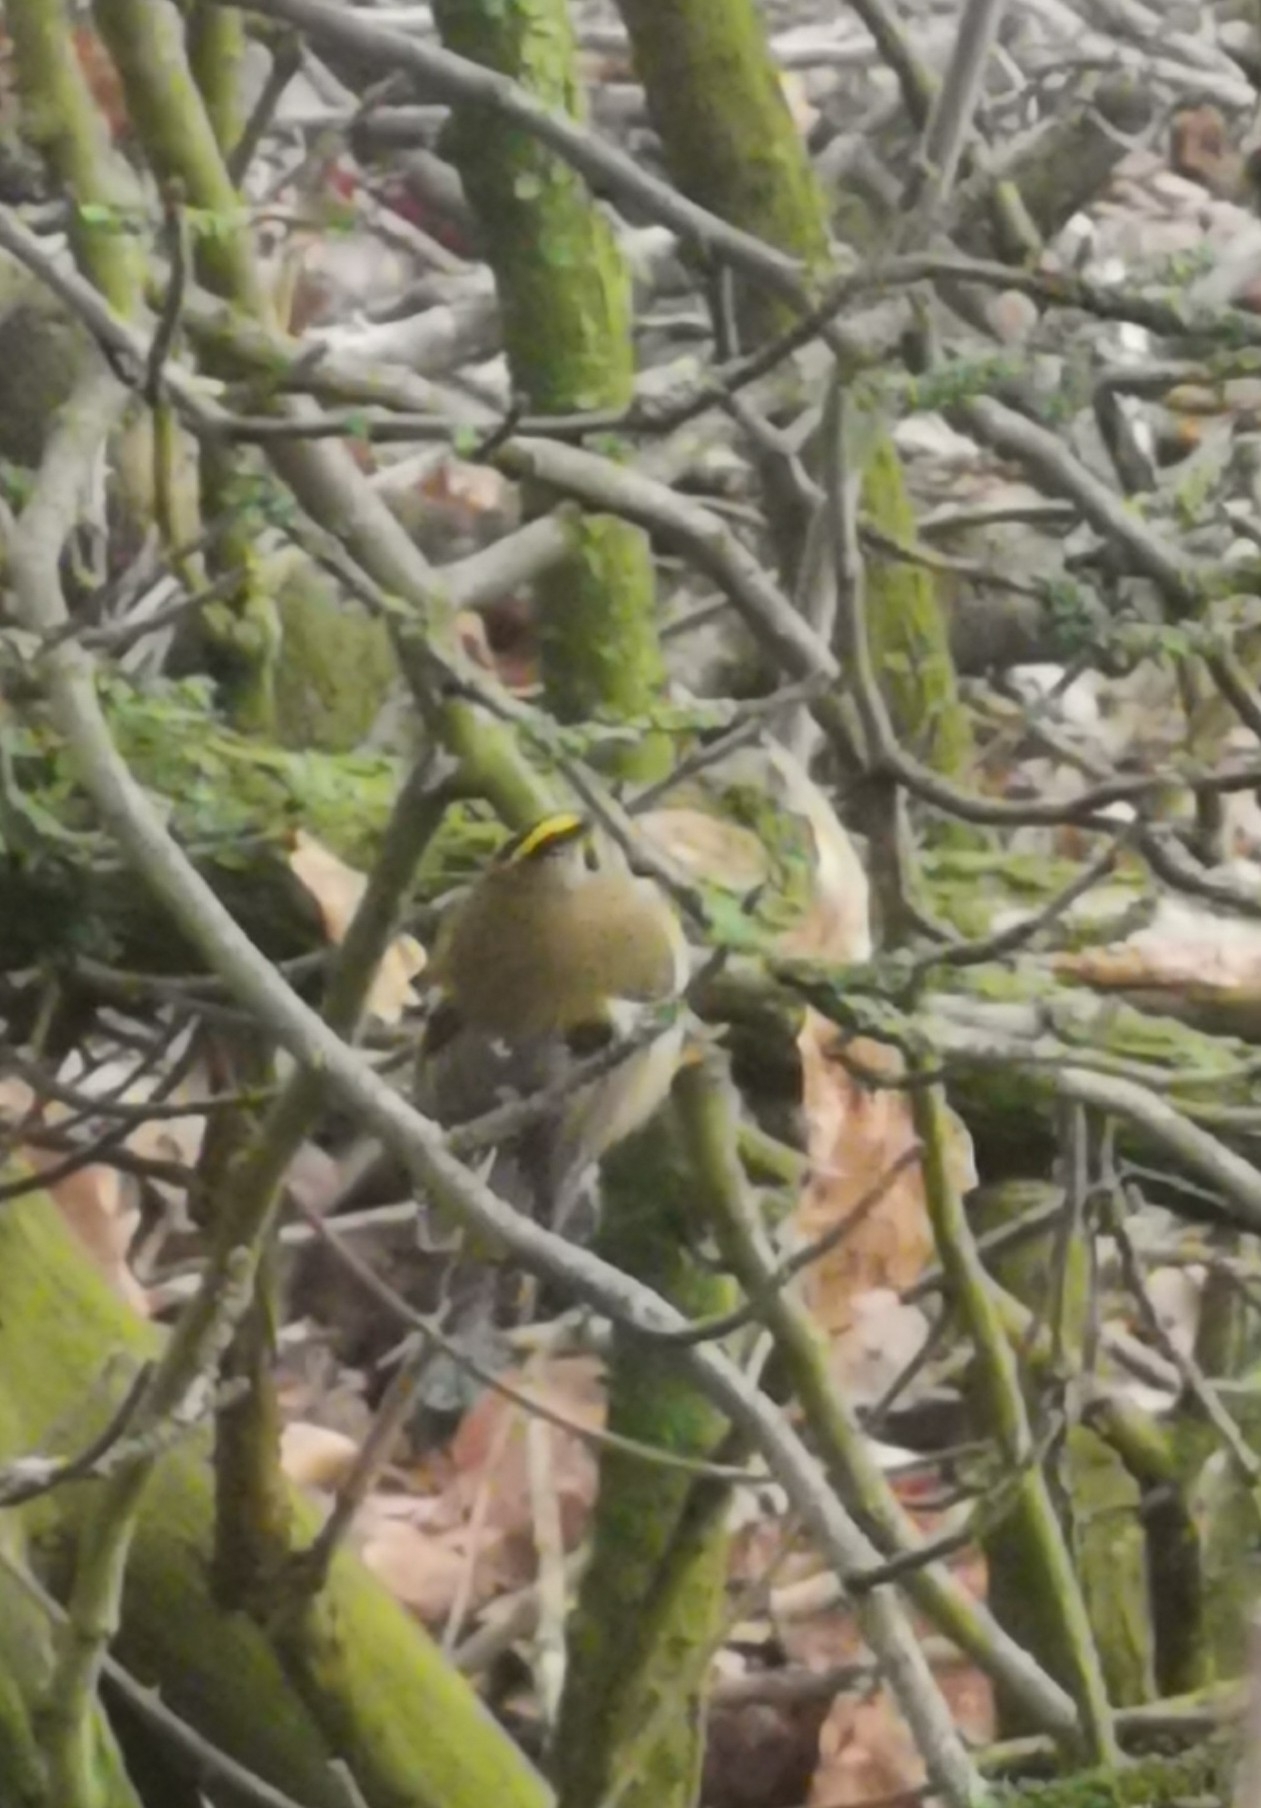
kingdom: Animalia
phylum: Chordata
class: Aves
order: Passeriformes
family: Regulidae
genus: Regulus
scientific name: Regulus regulus
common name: Goldcrest
